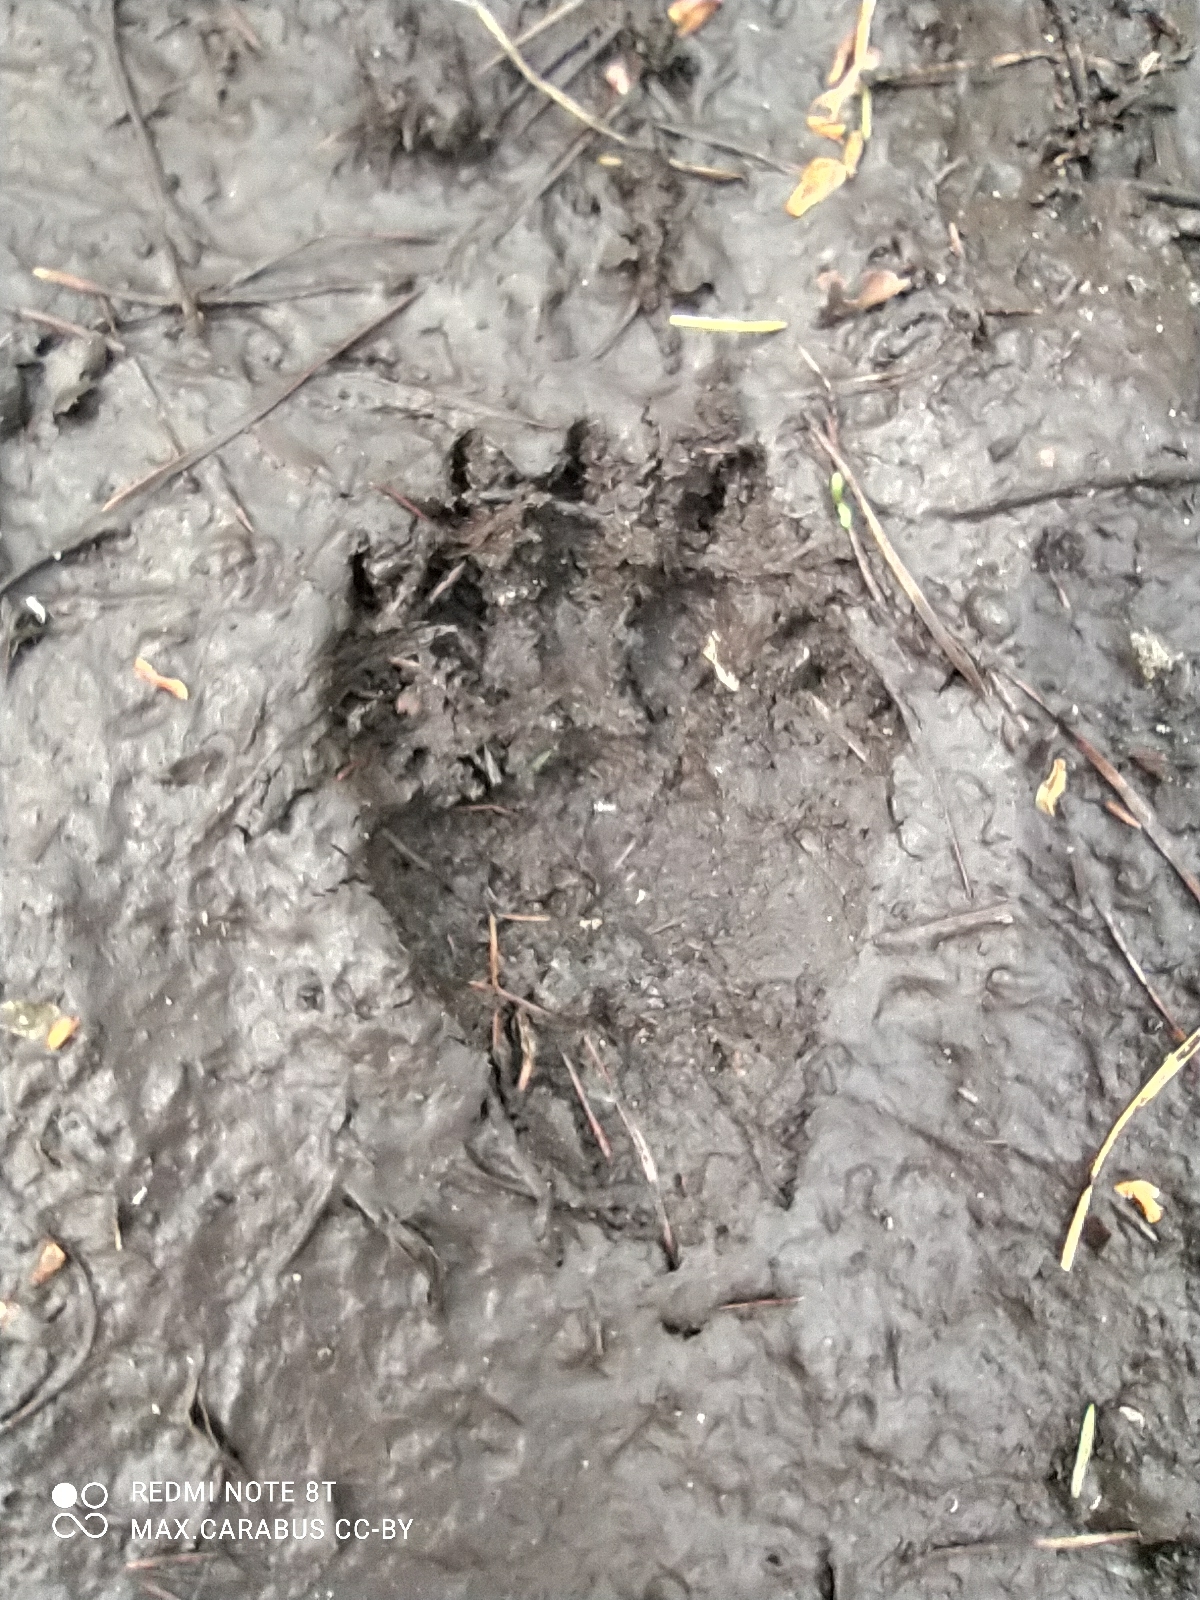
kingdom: Animalia
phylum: Chordata
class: Mammalia
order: Carnivora
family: Mustelidae
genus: Meles
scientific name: Meles meles
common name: Eurasian badger
